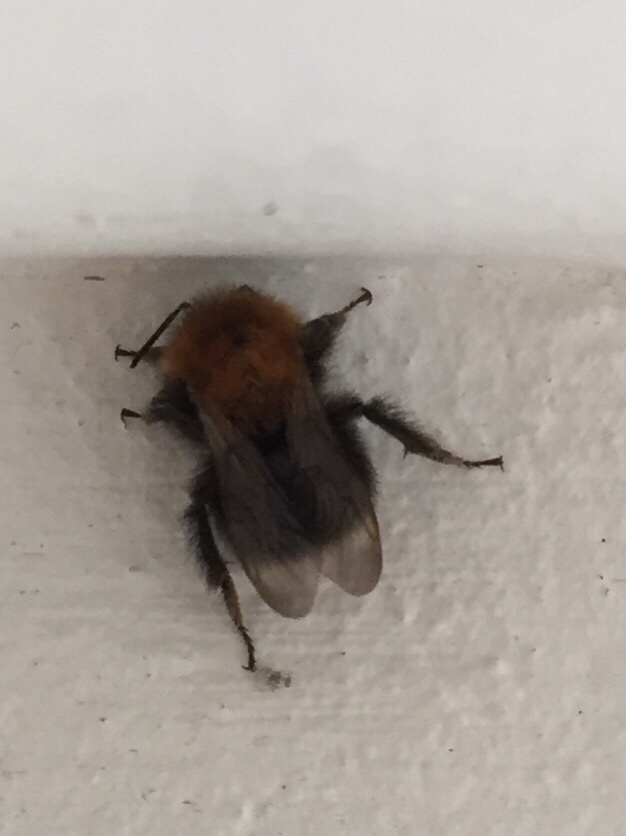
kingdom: Animalia
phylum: Arthropoda
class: Insecta
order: Hymenoptera
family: Apidae
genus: Bombus
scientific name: Bombus hypnorum
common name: New garden bumblebee
